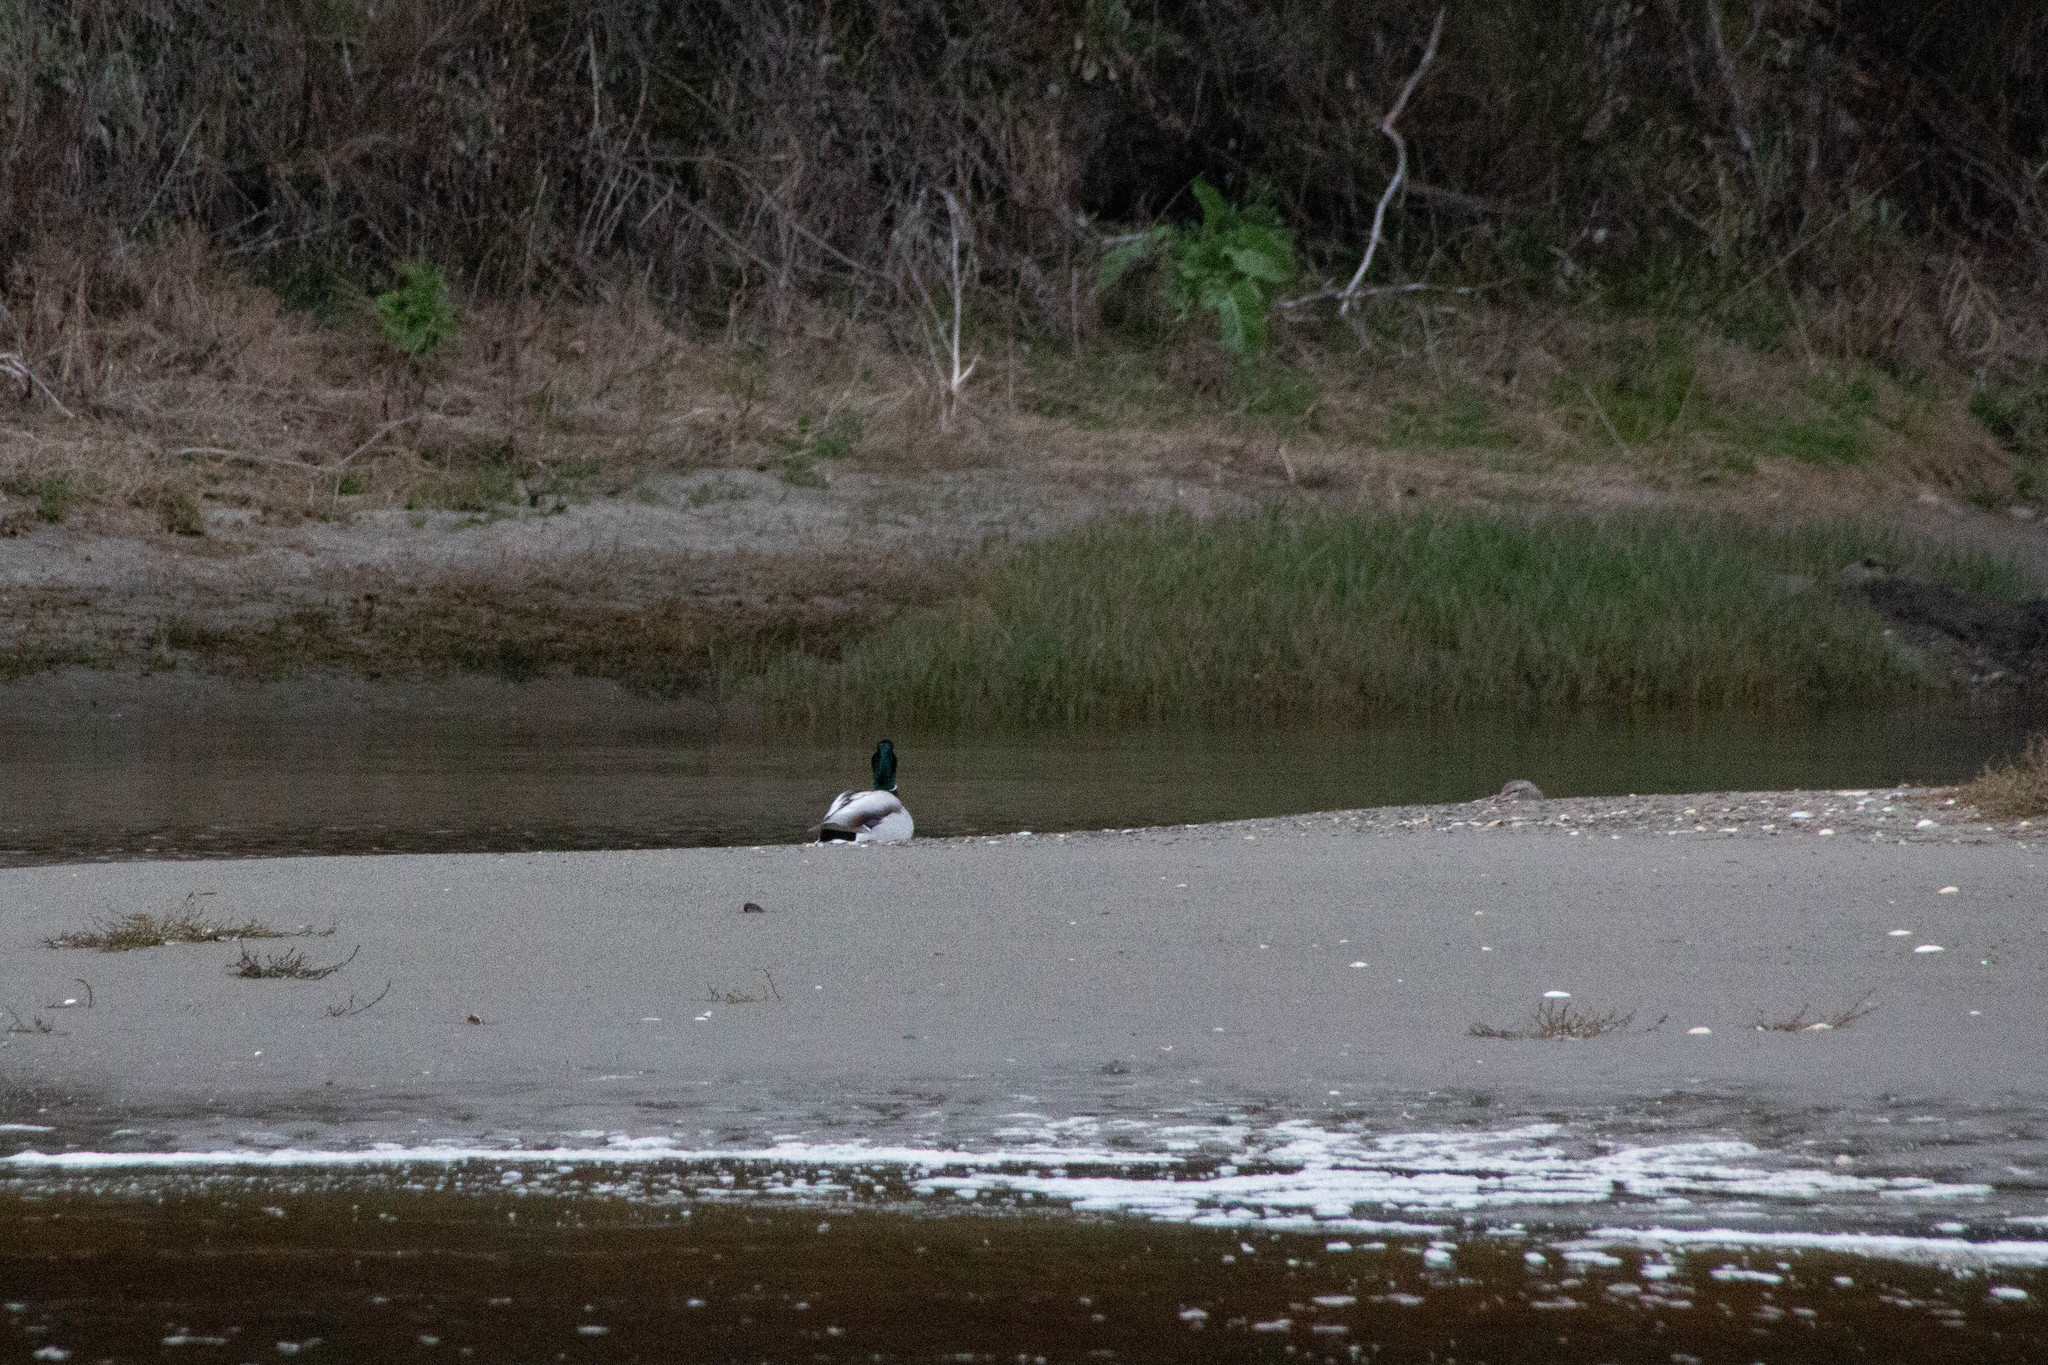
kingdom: Animalia
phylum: Chordata
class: Aves
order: Anseriformes
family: Anatidae
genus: Anas
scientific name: Anas platyrhynchos
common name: Mallard
